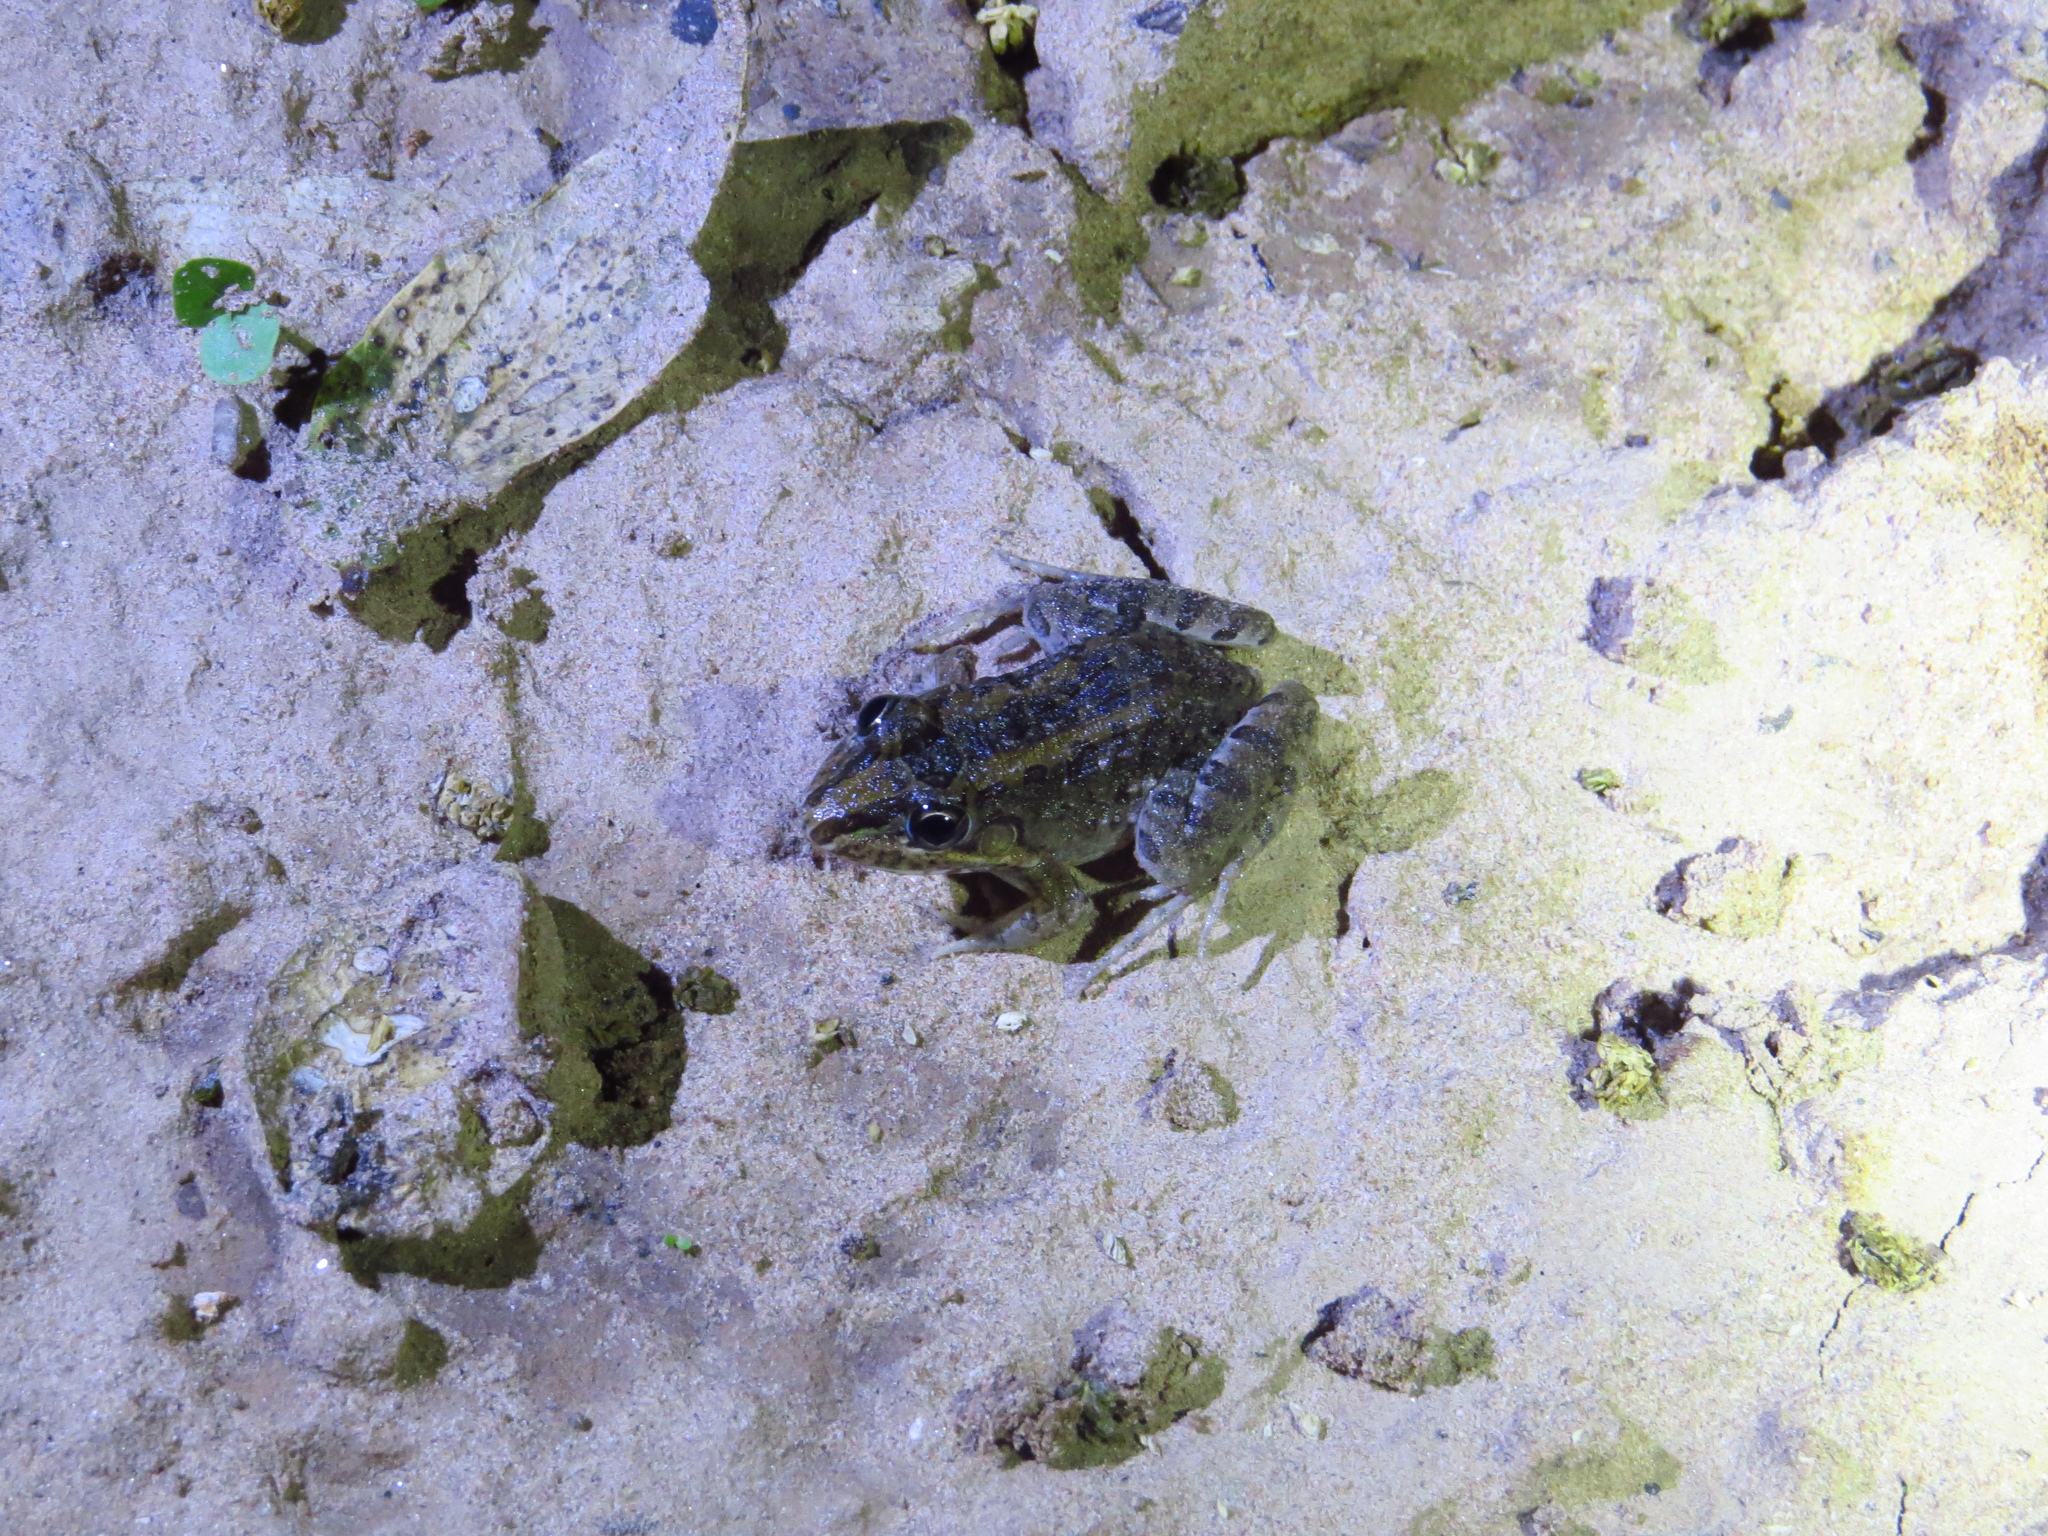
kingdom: Animalia
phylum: Chordata
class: Amphibia
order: Anura
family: Leptodactylidae
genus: Leptodactylus
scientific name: Leptodactylus macrosternum
